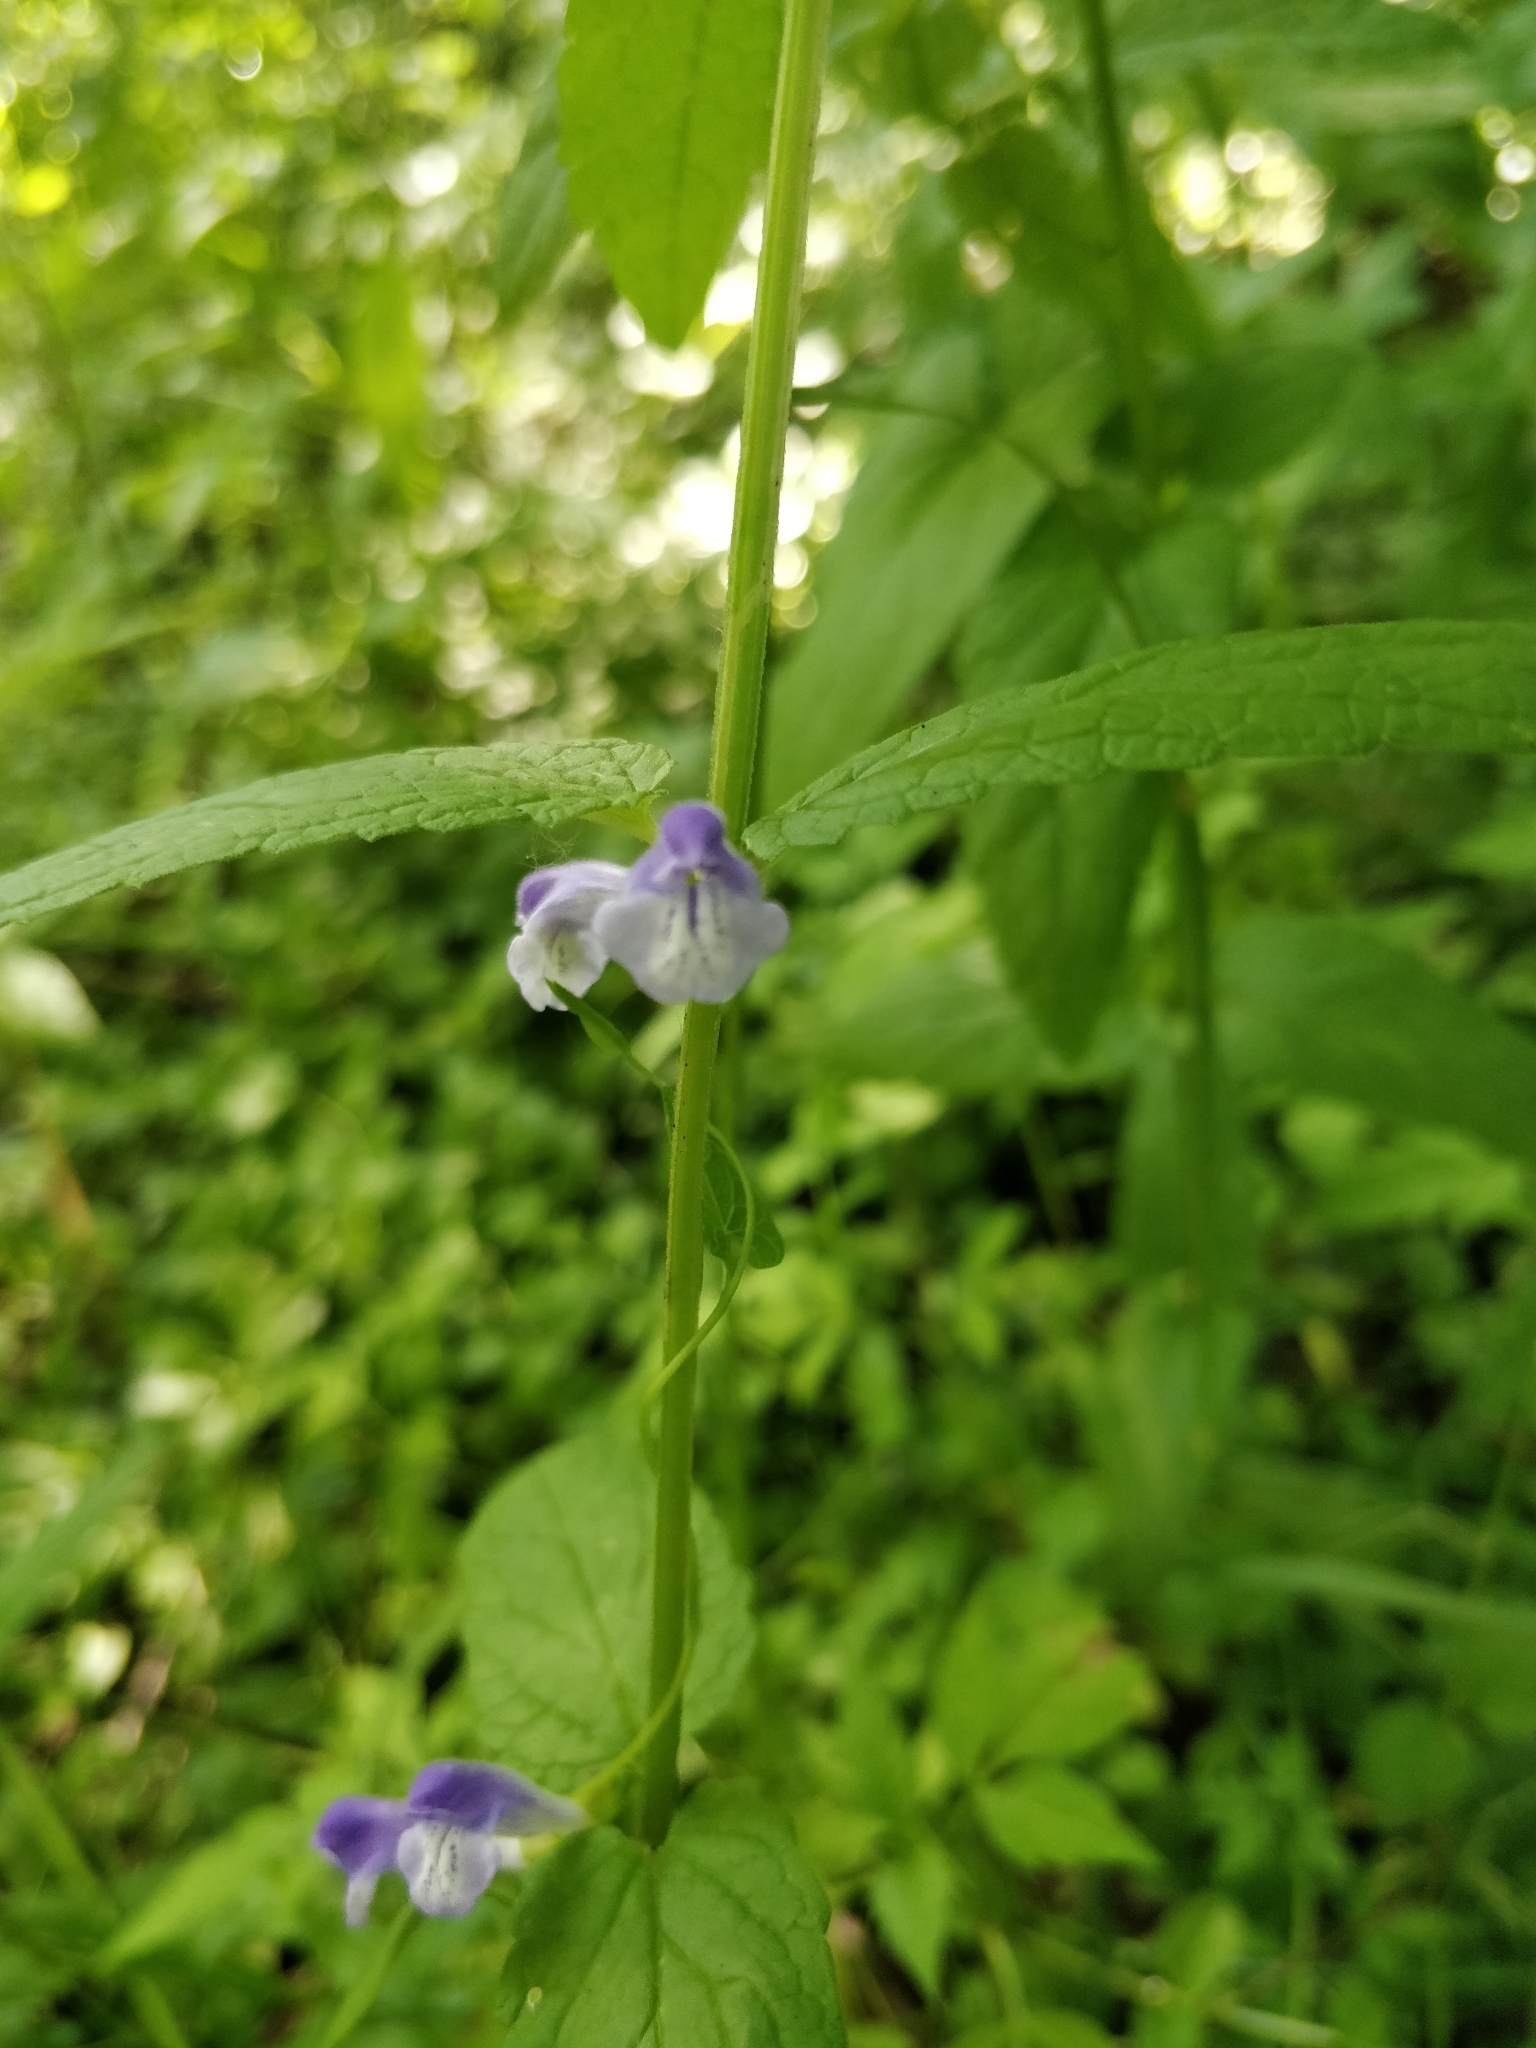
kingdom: Plantae
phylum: Tracheophyta
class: Magnoliopsida
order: Lamiales
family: Lamiaceae
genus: Scutellaria
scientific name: Scutellaria galericulata
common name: Skullcap
